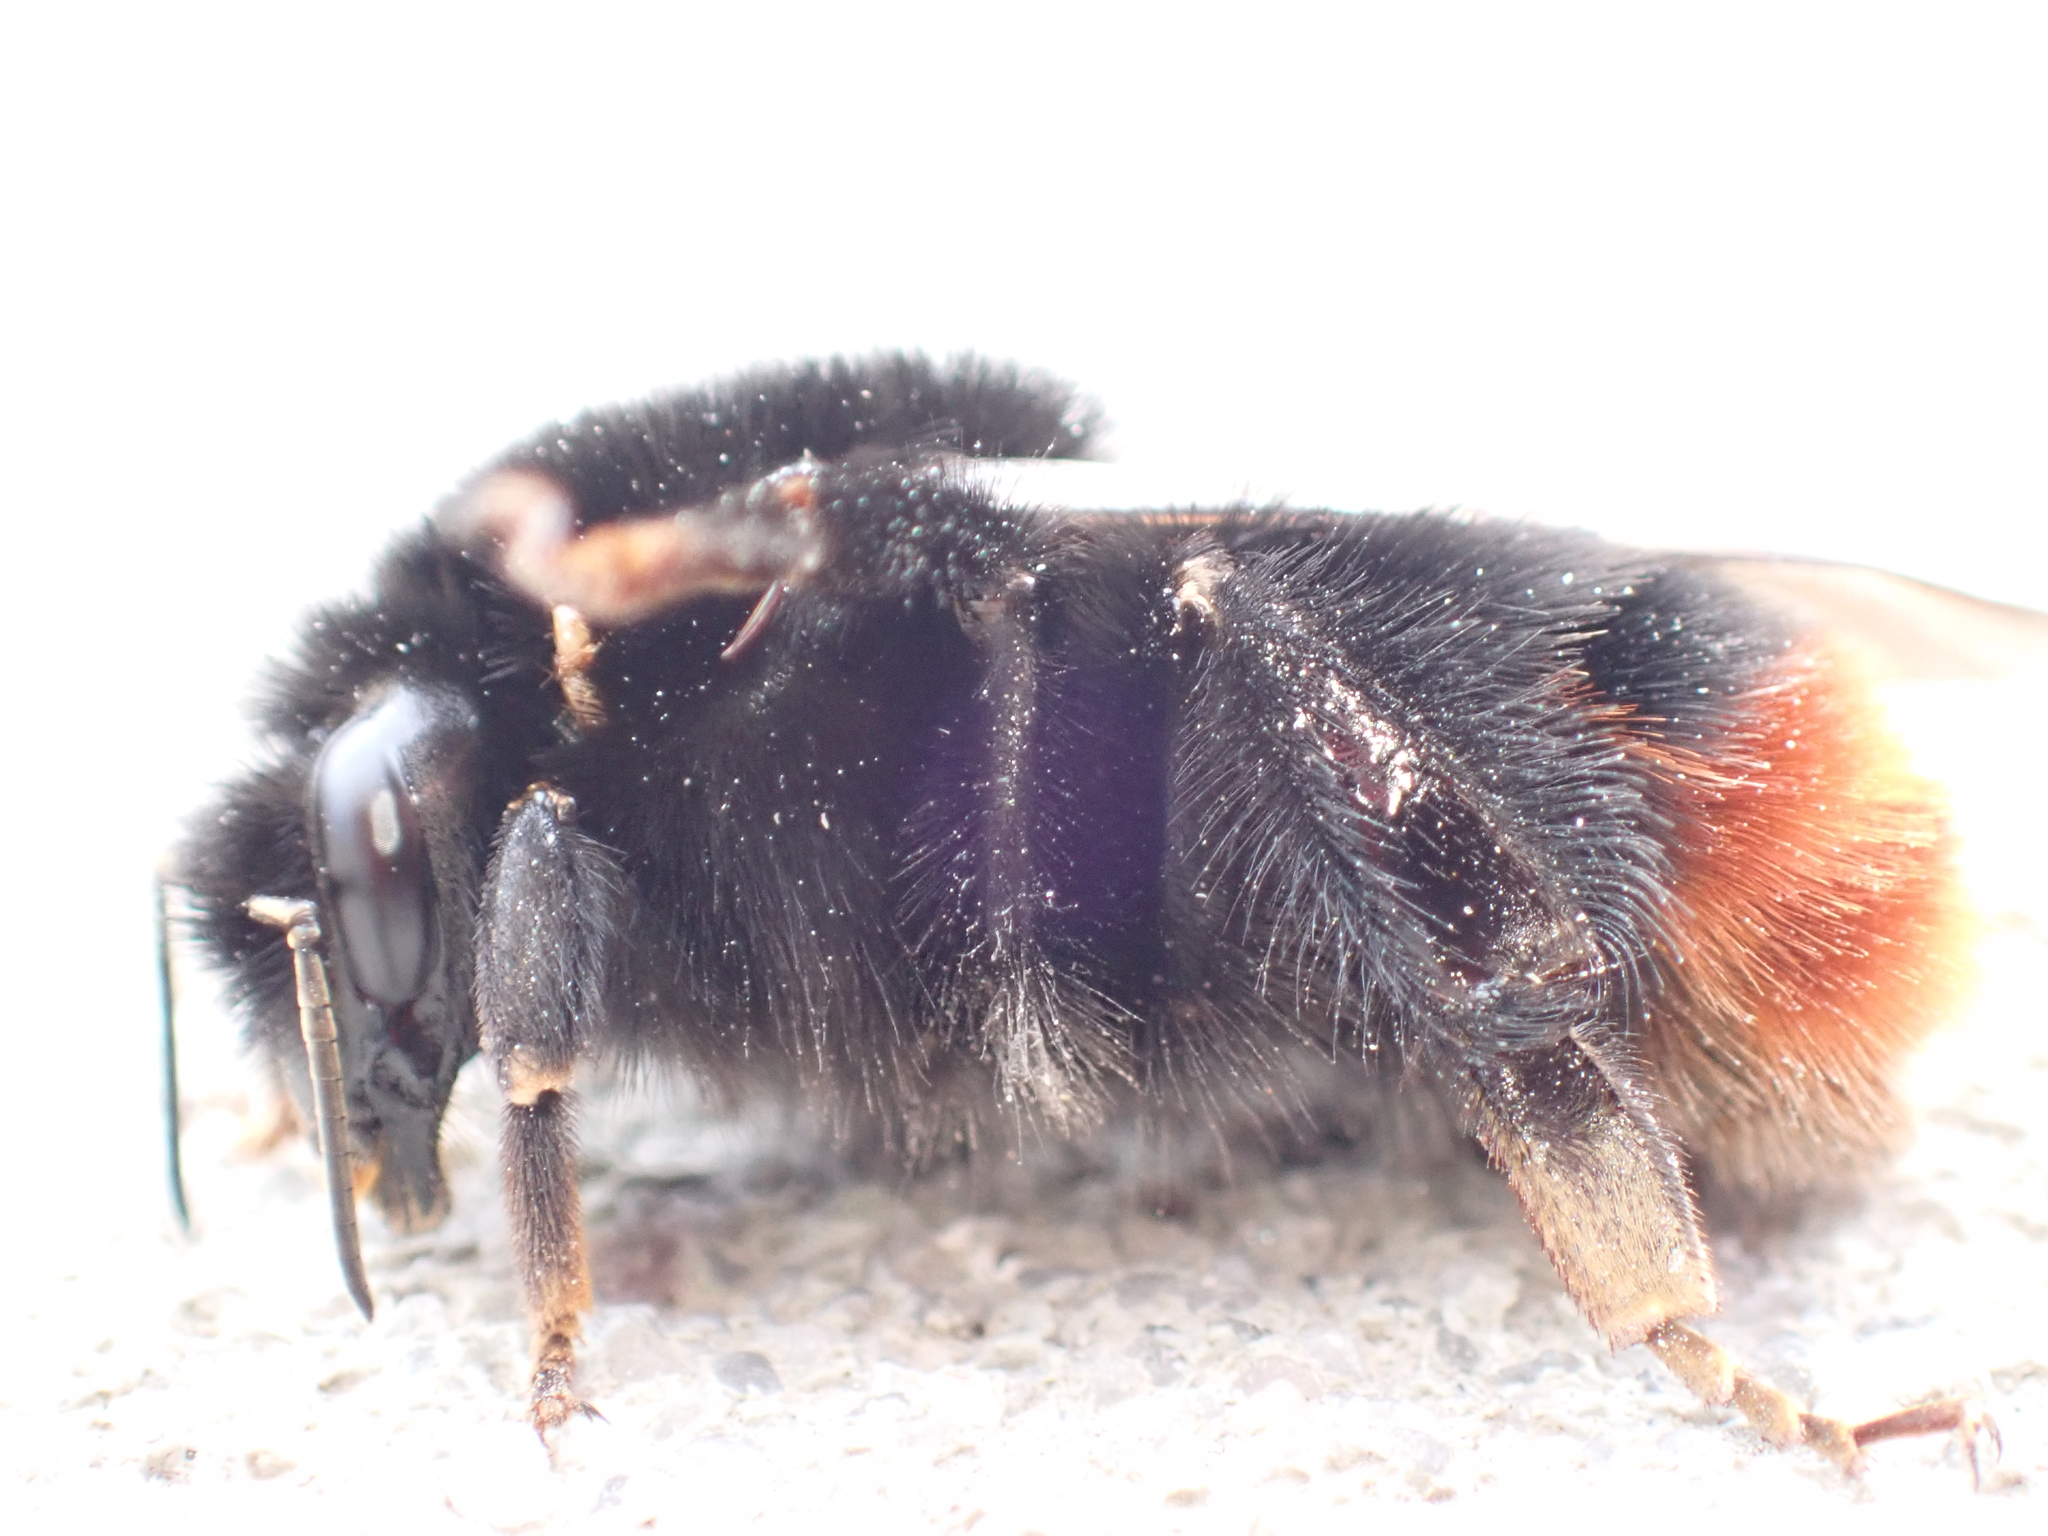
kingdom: Animalia
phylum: Arthropoda
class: Insecta
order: Hymenoptera
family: Apidae
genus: Bombus
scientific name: Bombus lapidarius
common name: Large red-tailed humble-bee
